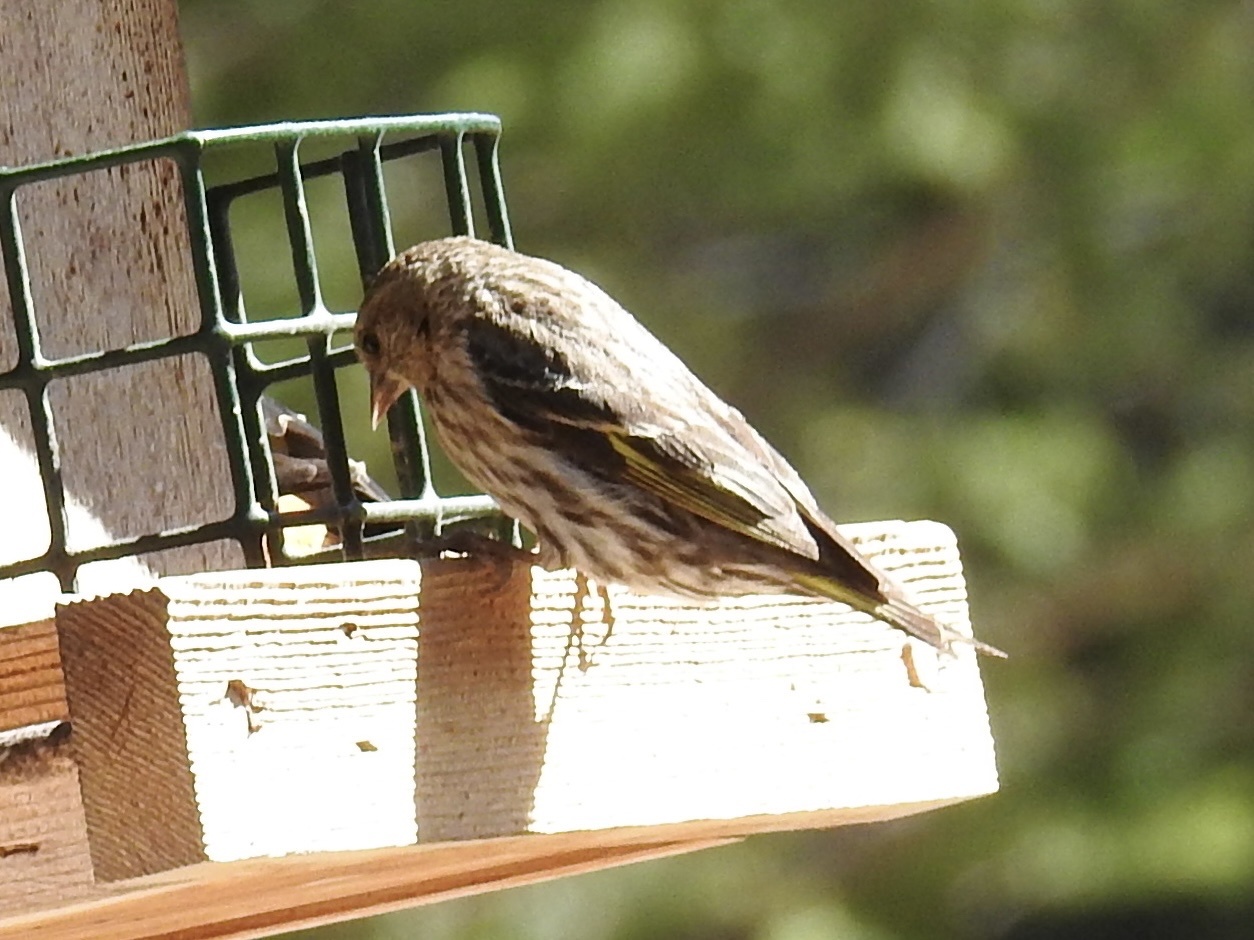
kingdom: Animalia
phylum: Chordata
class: Aves
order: Passeriformes
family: Fringillidae
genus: Spinus
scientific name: Spinus pinus
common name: Pine siskin
